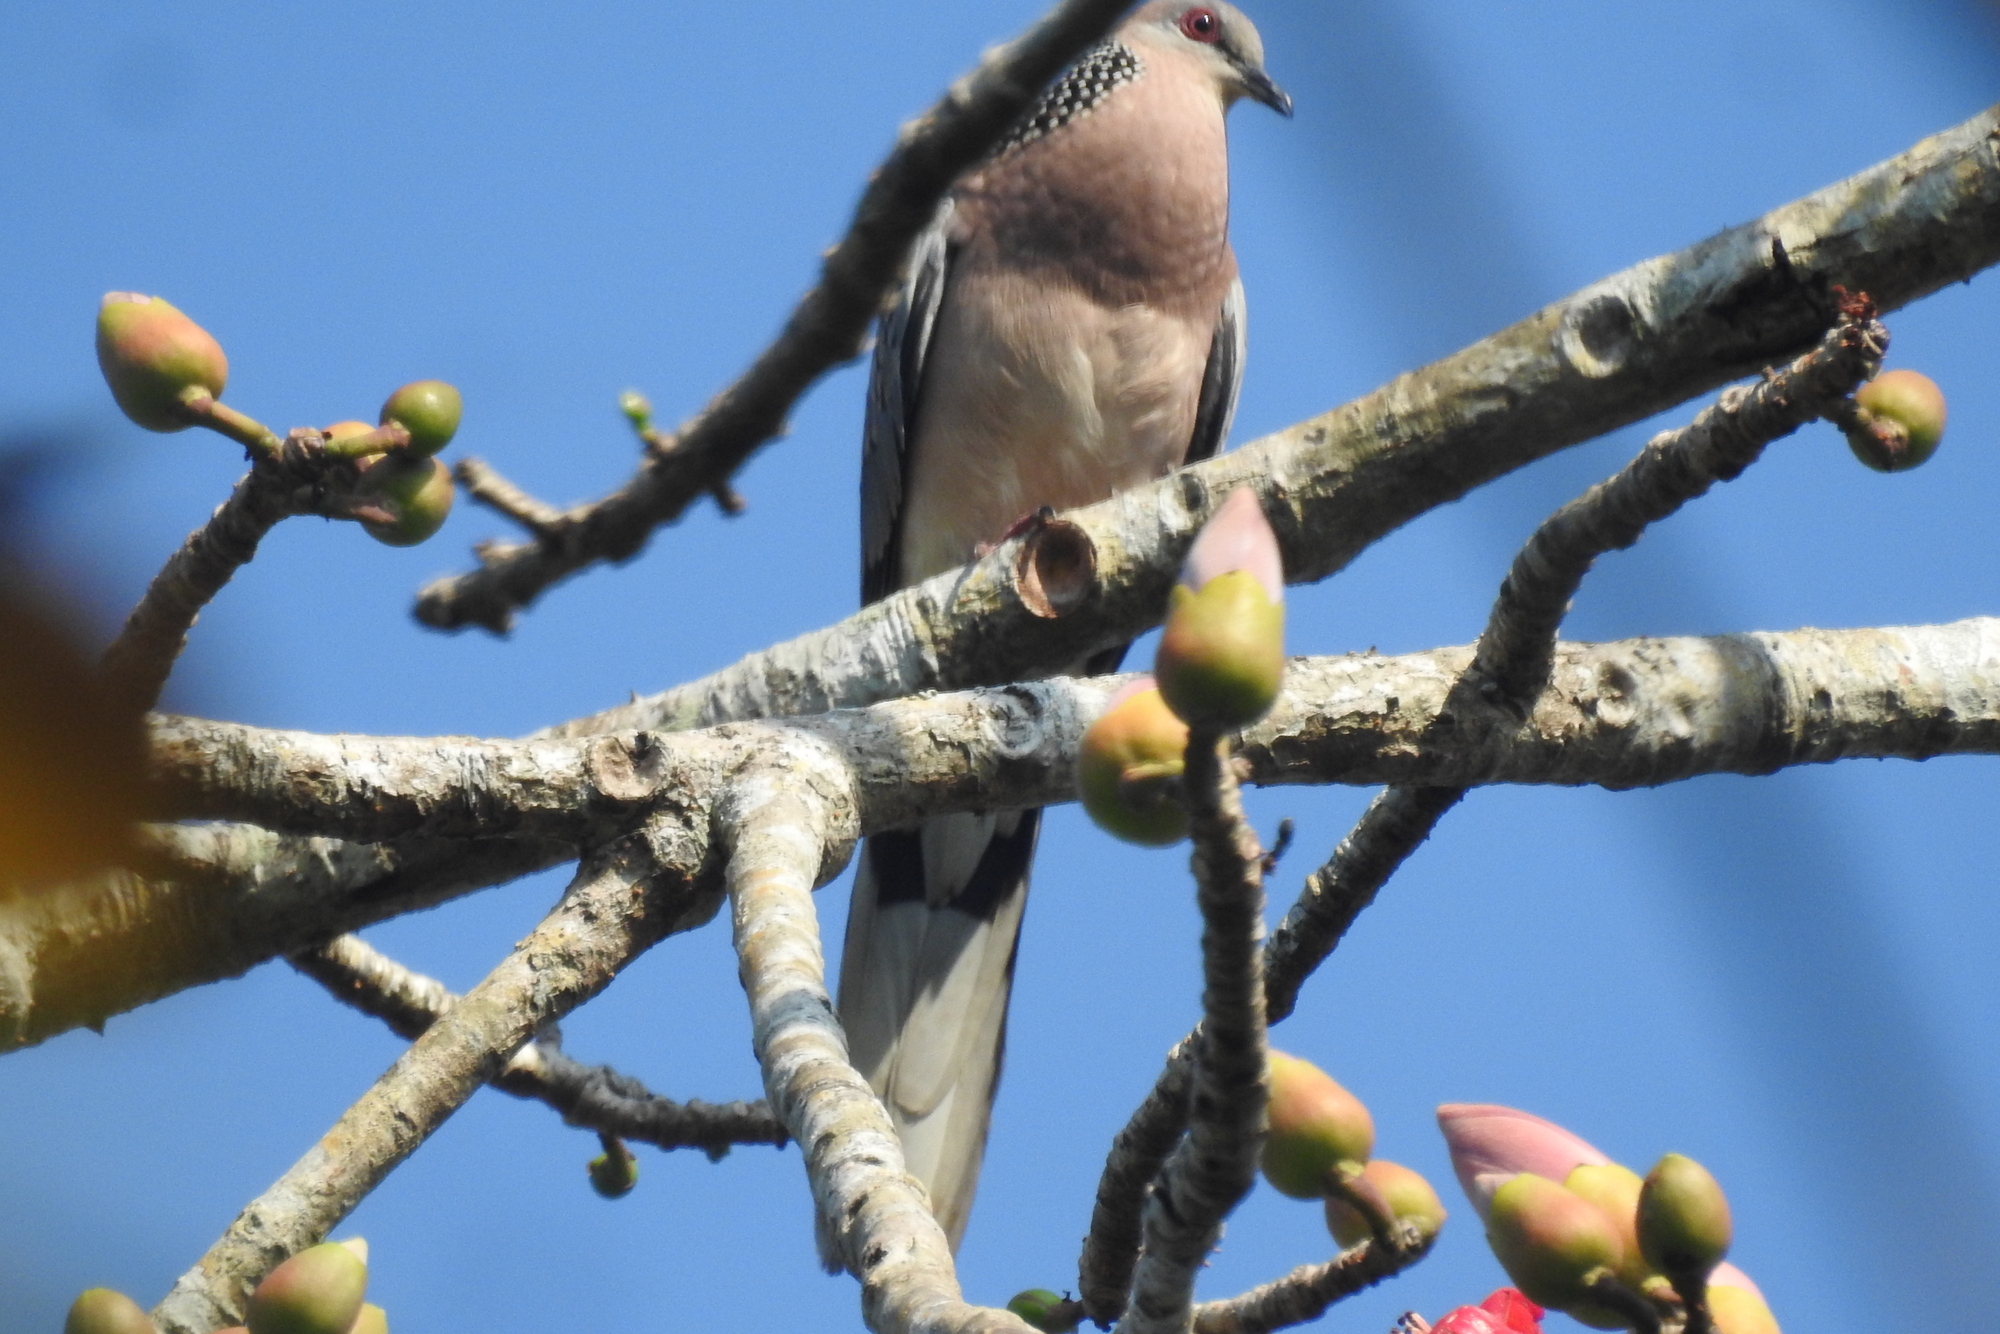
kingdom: Animalia
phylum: Chordata
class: Aves
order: Columbiformes
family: Columbidae
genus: Spilopelia
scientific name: Spilopelia chinensis
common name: Spotted dove
